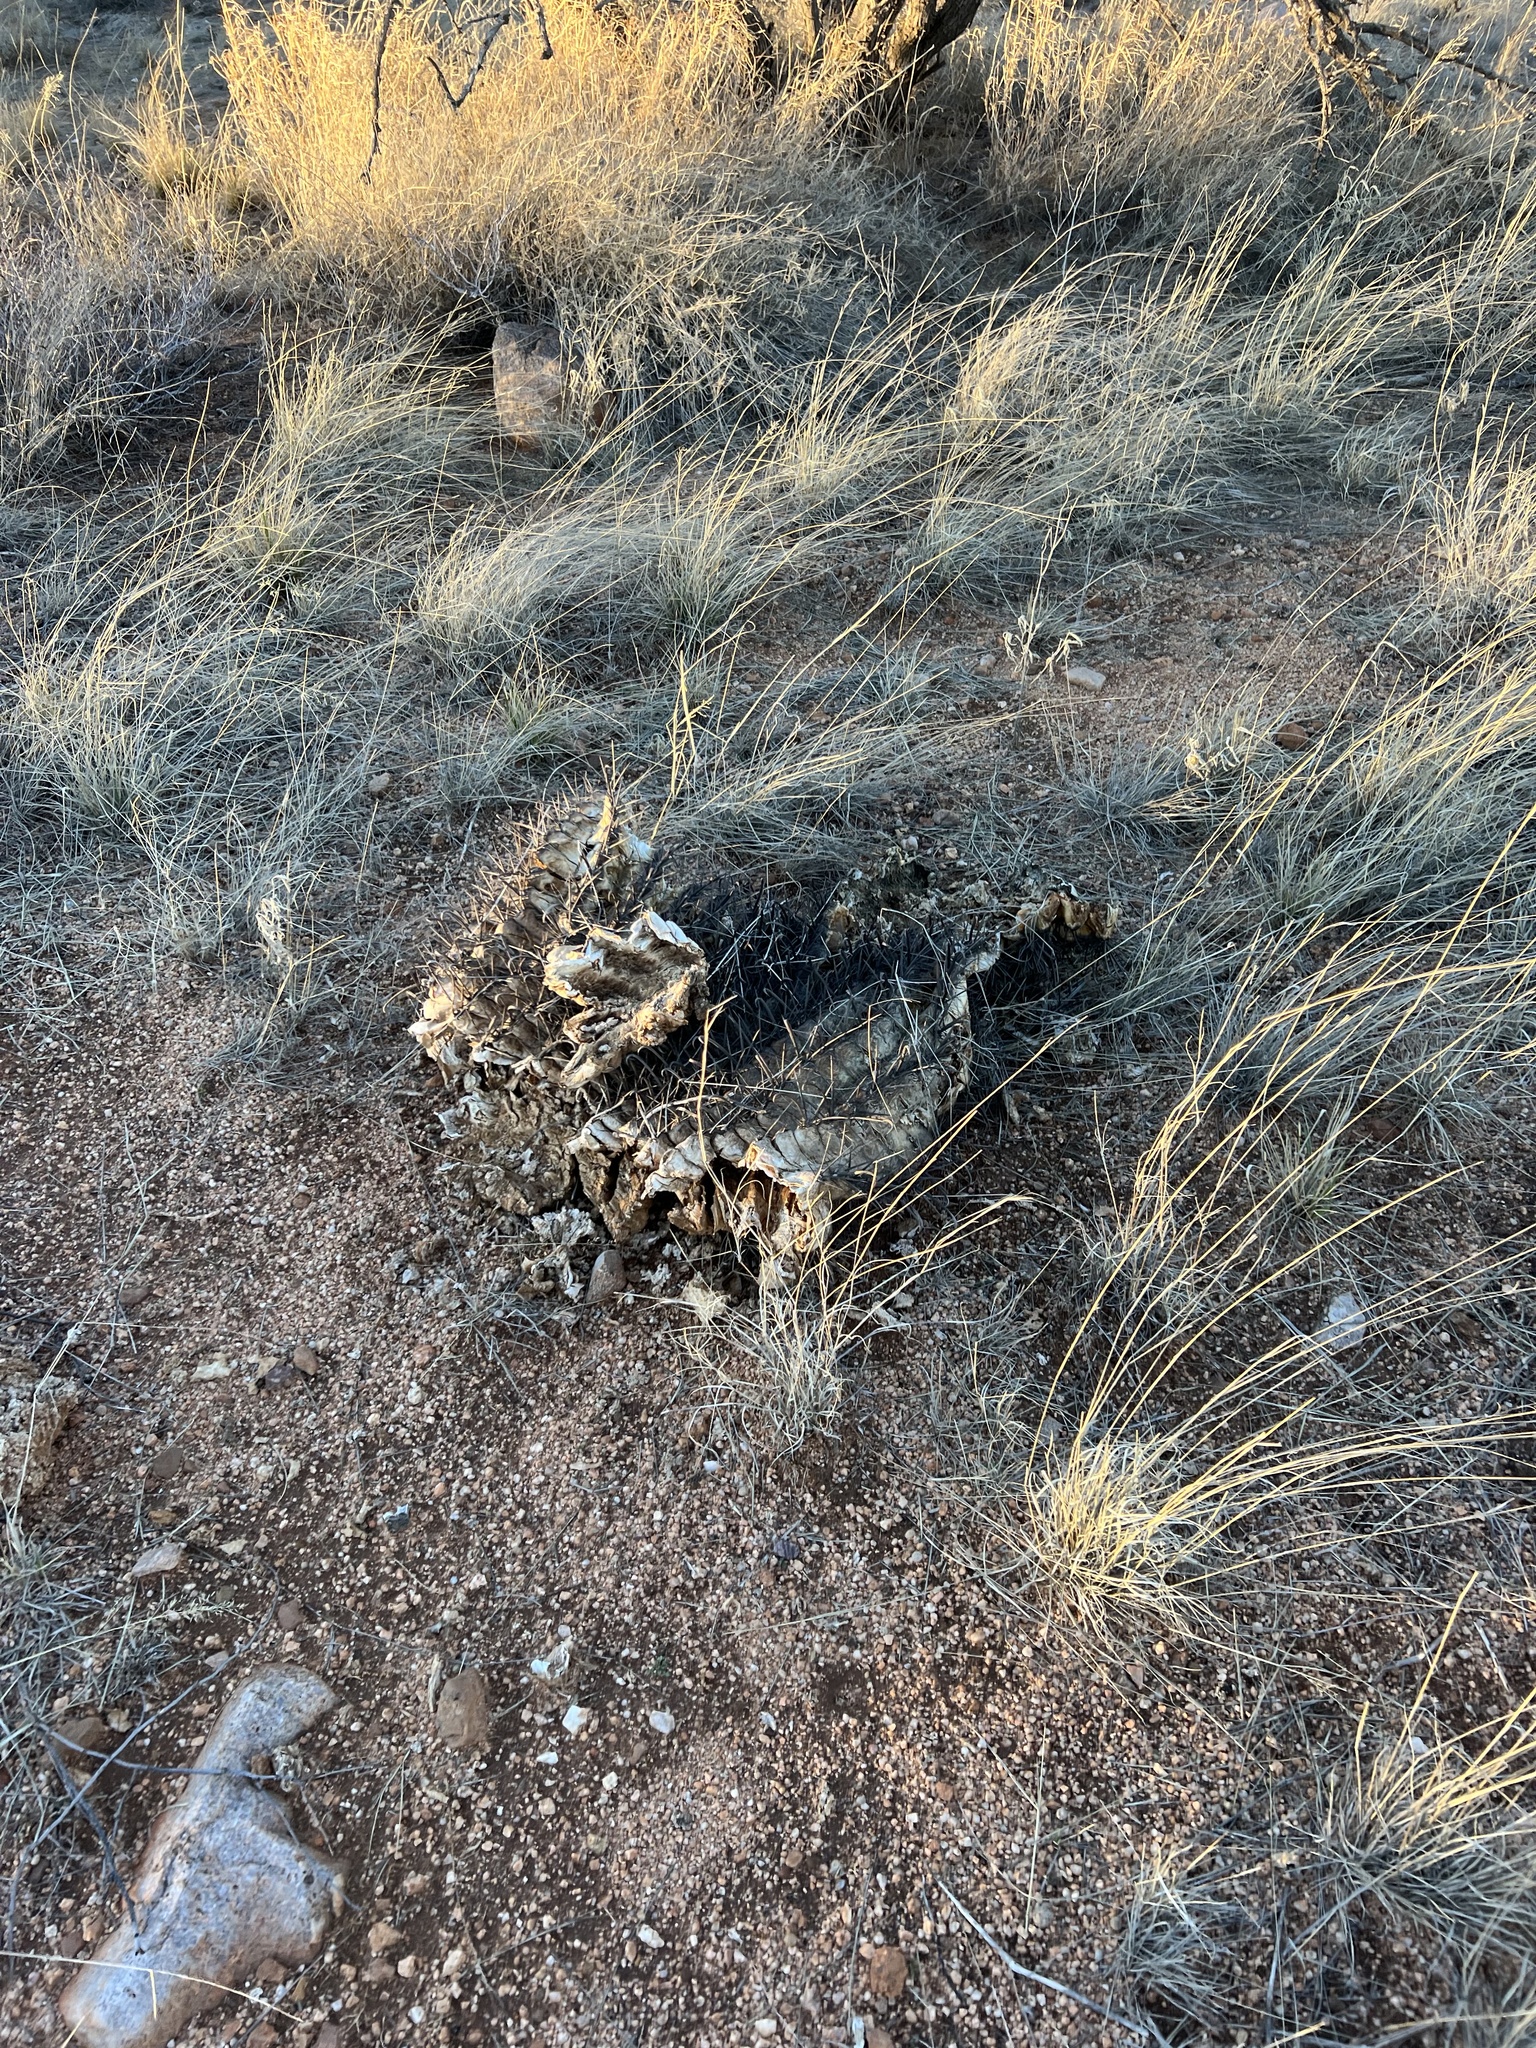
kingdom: Plantae
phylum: Tracheophyta
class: Magnoliopsida
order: Caryophyllales
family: Cactaceae
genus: Ferocactus
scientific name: Ferocactus wislizeni
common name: Candy barrel cactus
